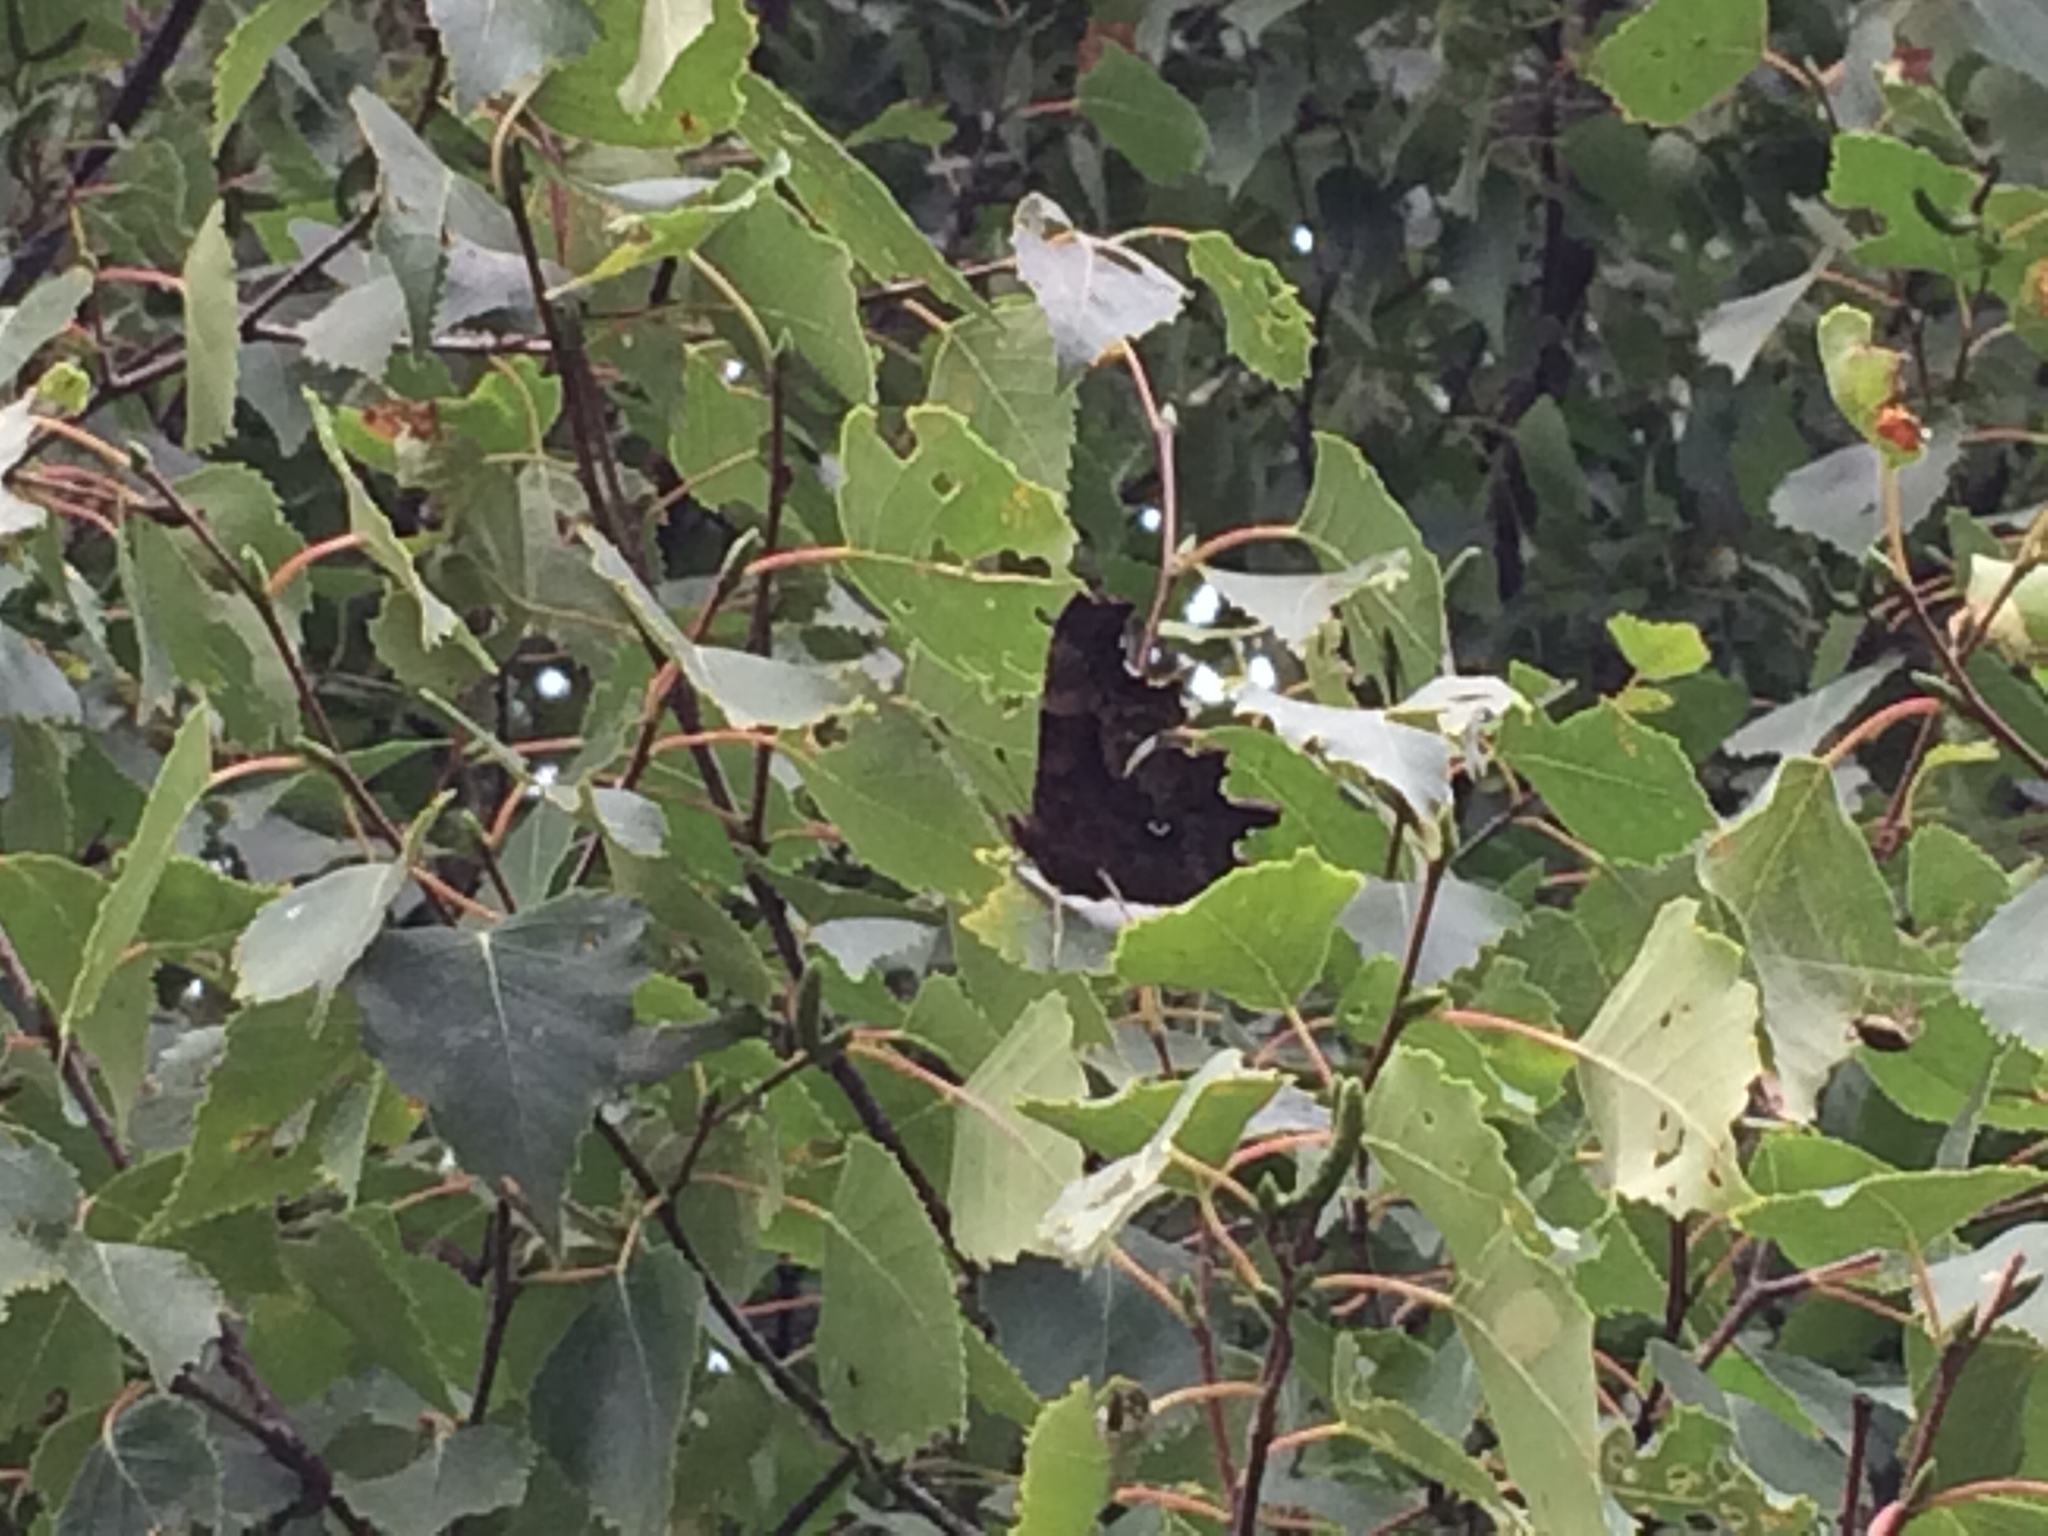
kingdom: Animalia
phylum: Arthropoda
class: Insecta
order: Lepidoptera
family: Nymphalidae
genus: Polygonia
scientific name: Polygonia c-album
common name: Comma
